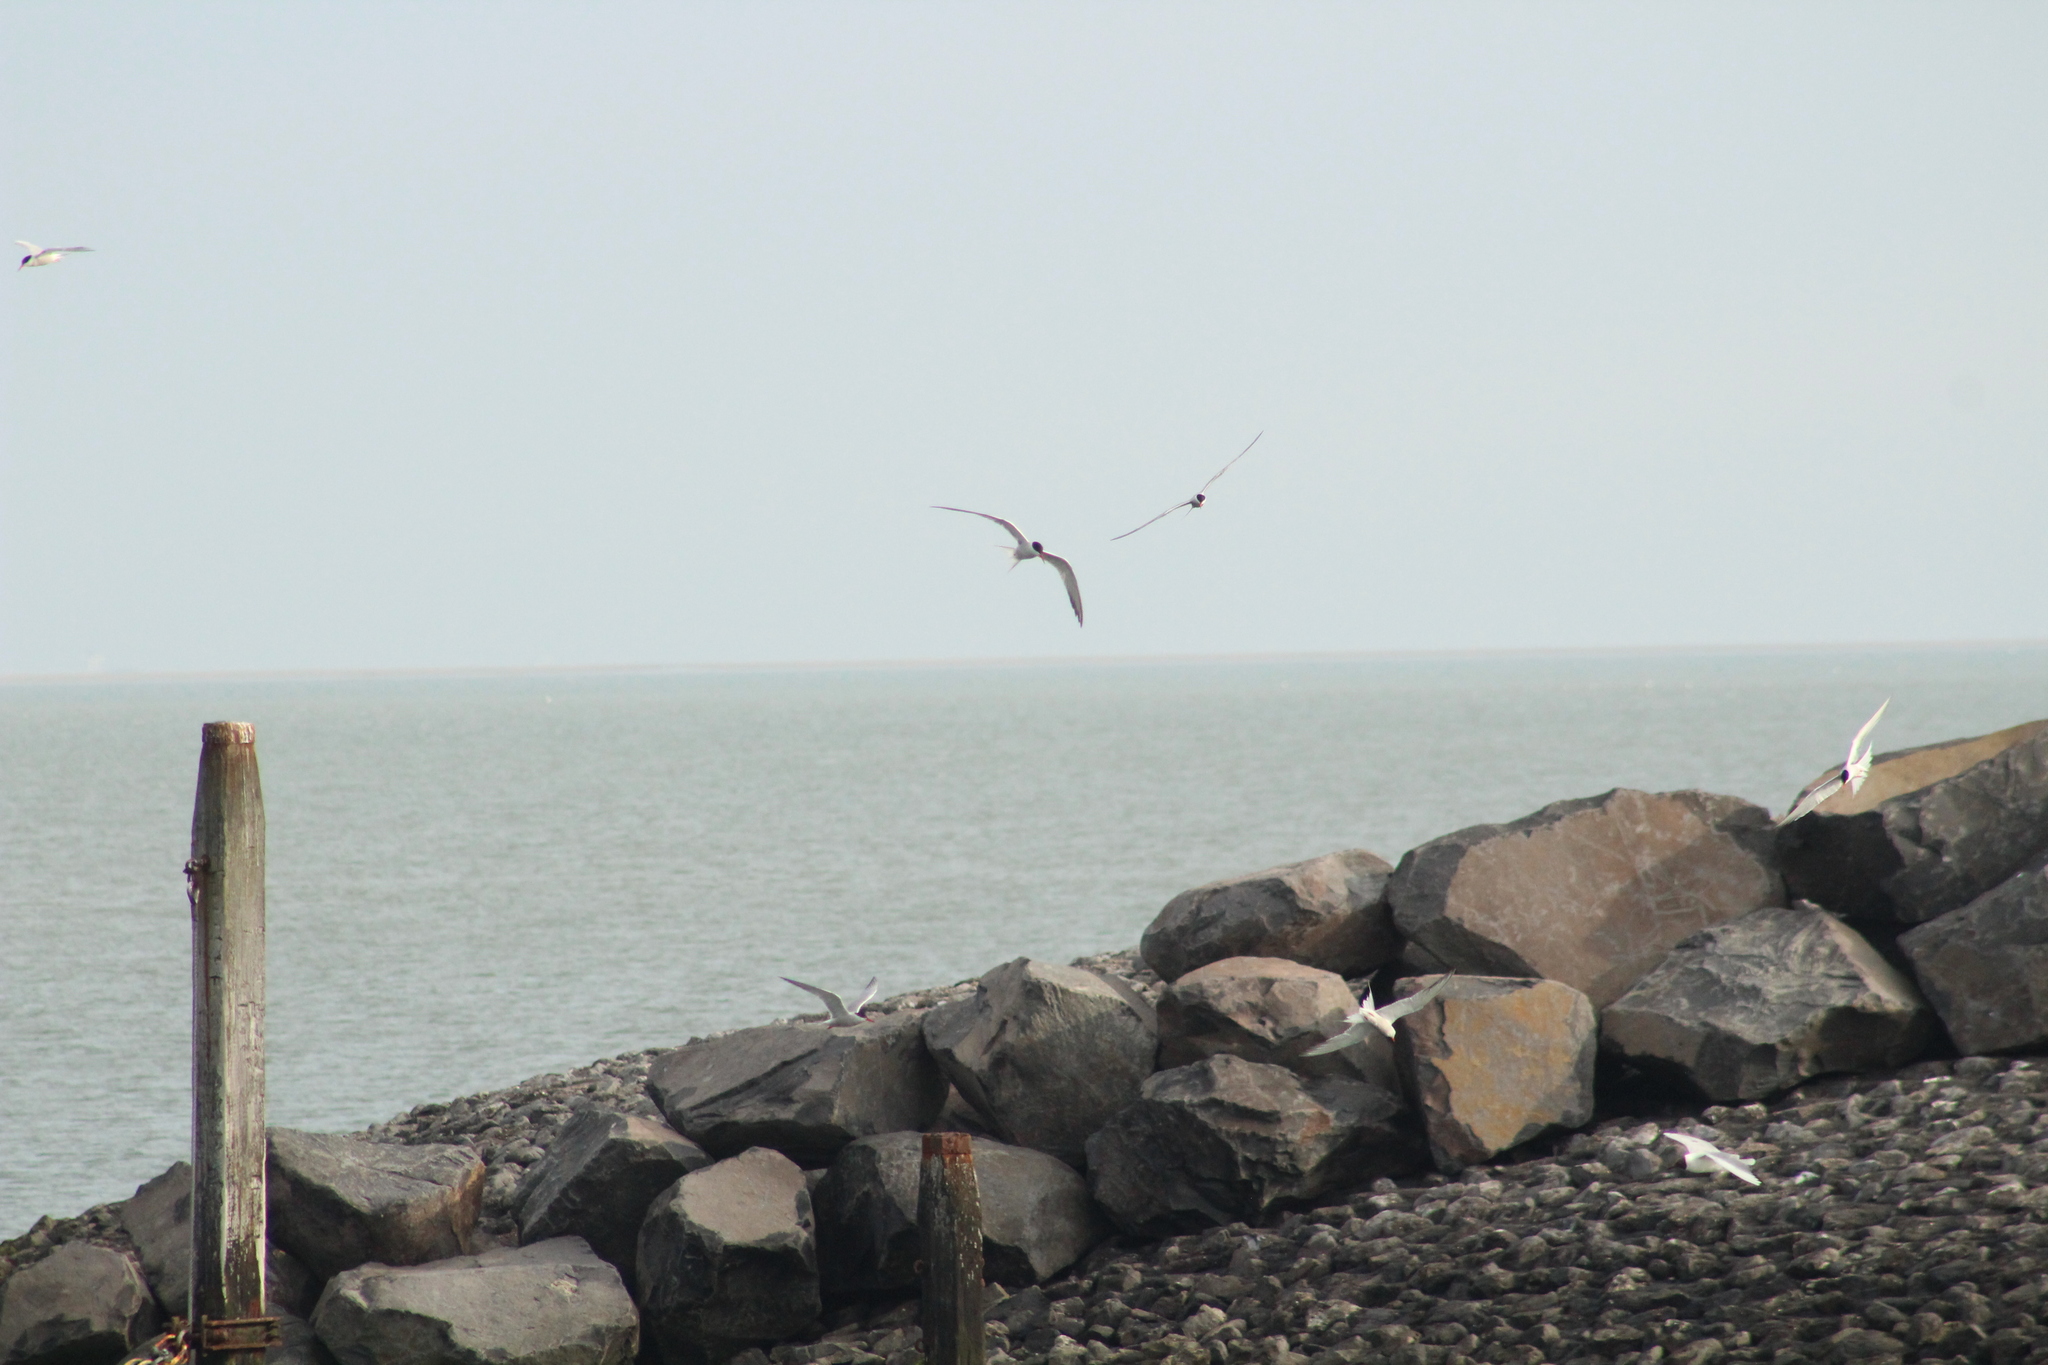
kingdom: Animalia
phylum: Chordata
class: Aves
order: Charadriiformes
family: Laridae
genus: Sterna
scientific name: Sterna hirundo
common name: Common tern
